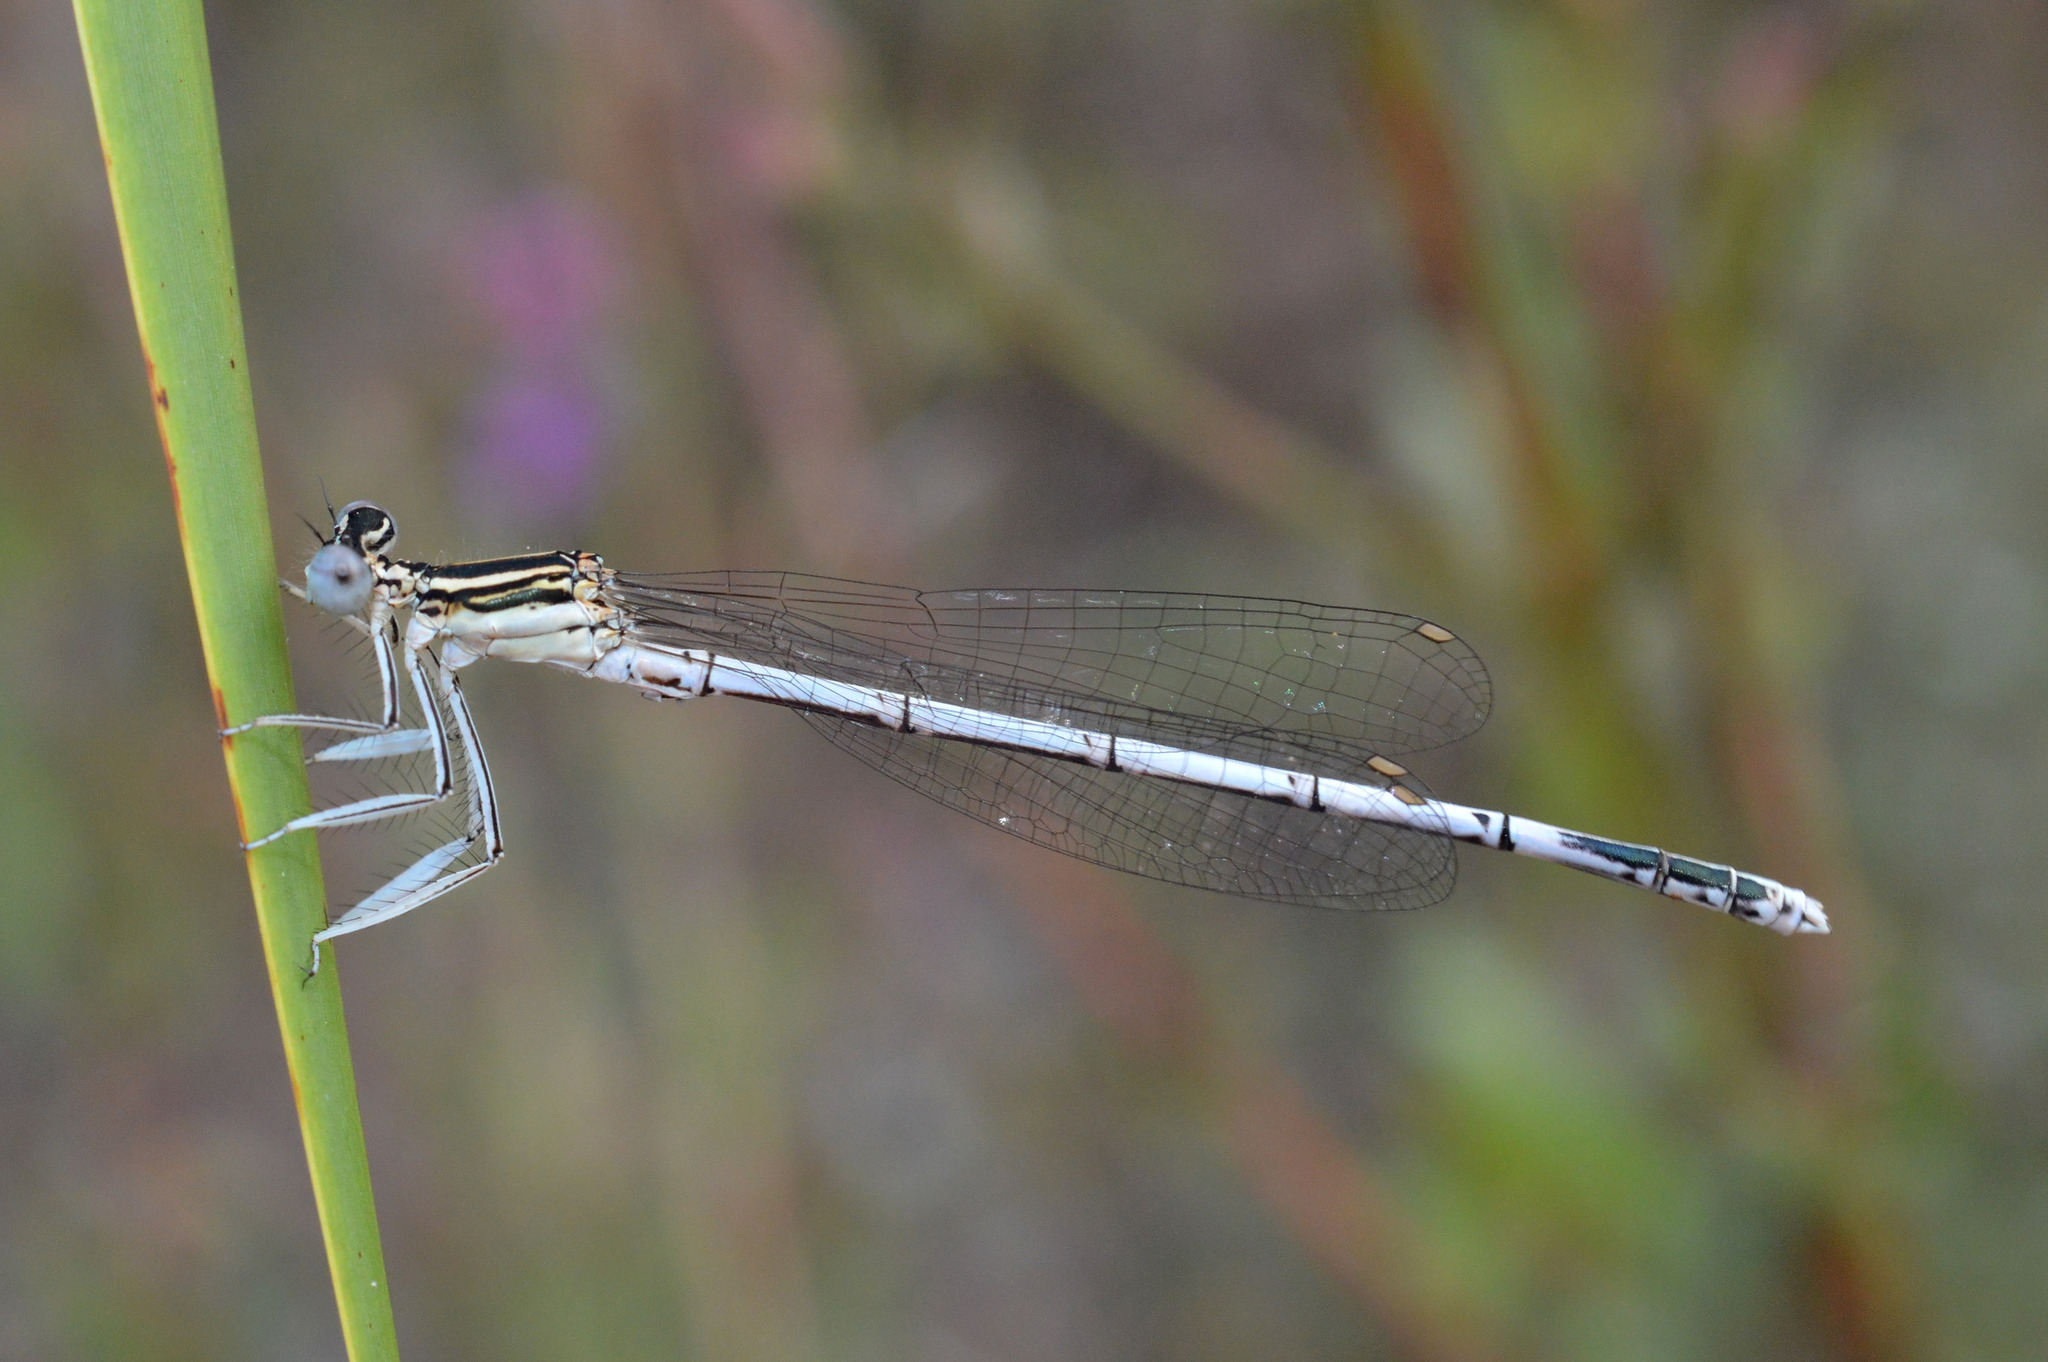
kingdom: Animalia
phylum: Arthropoda
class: Insecta
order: Odonata
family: Platycnemididae
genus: Platycnemis
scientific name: Platycnemis pennipes
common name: White-legged damselfly
